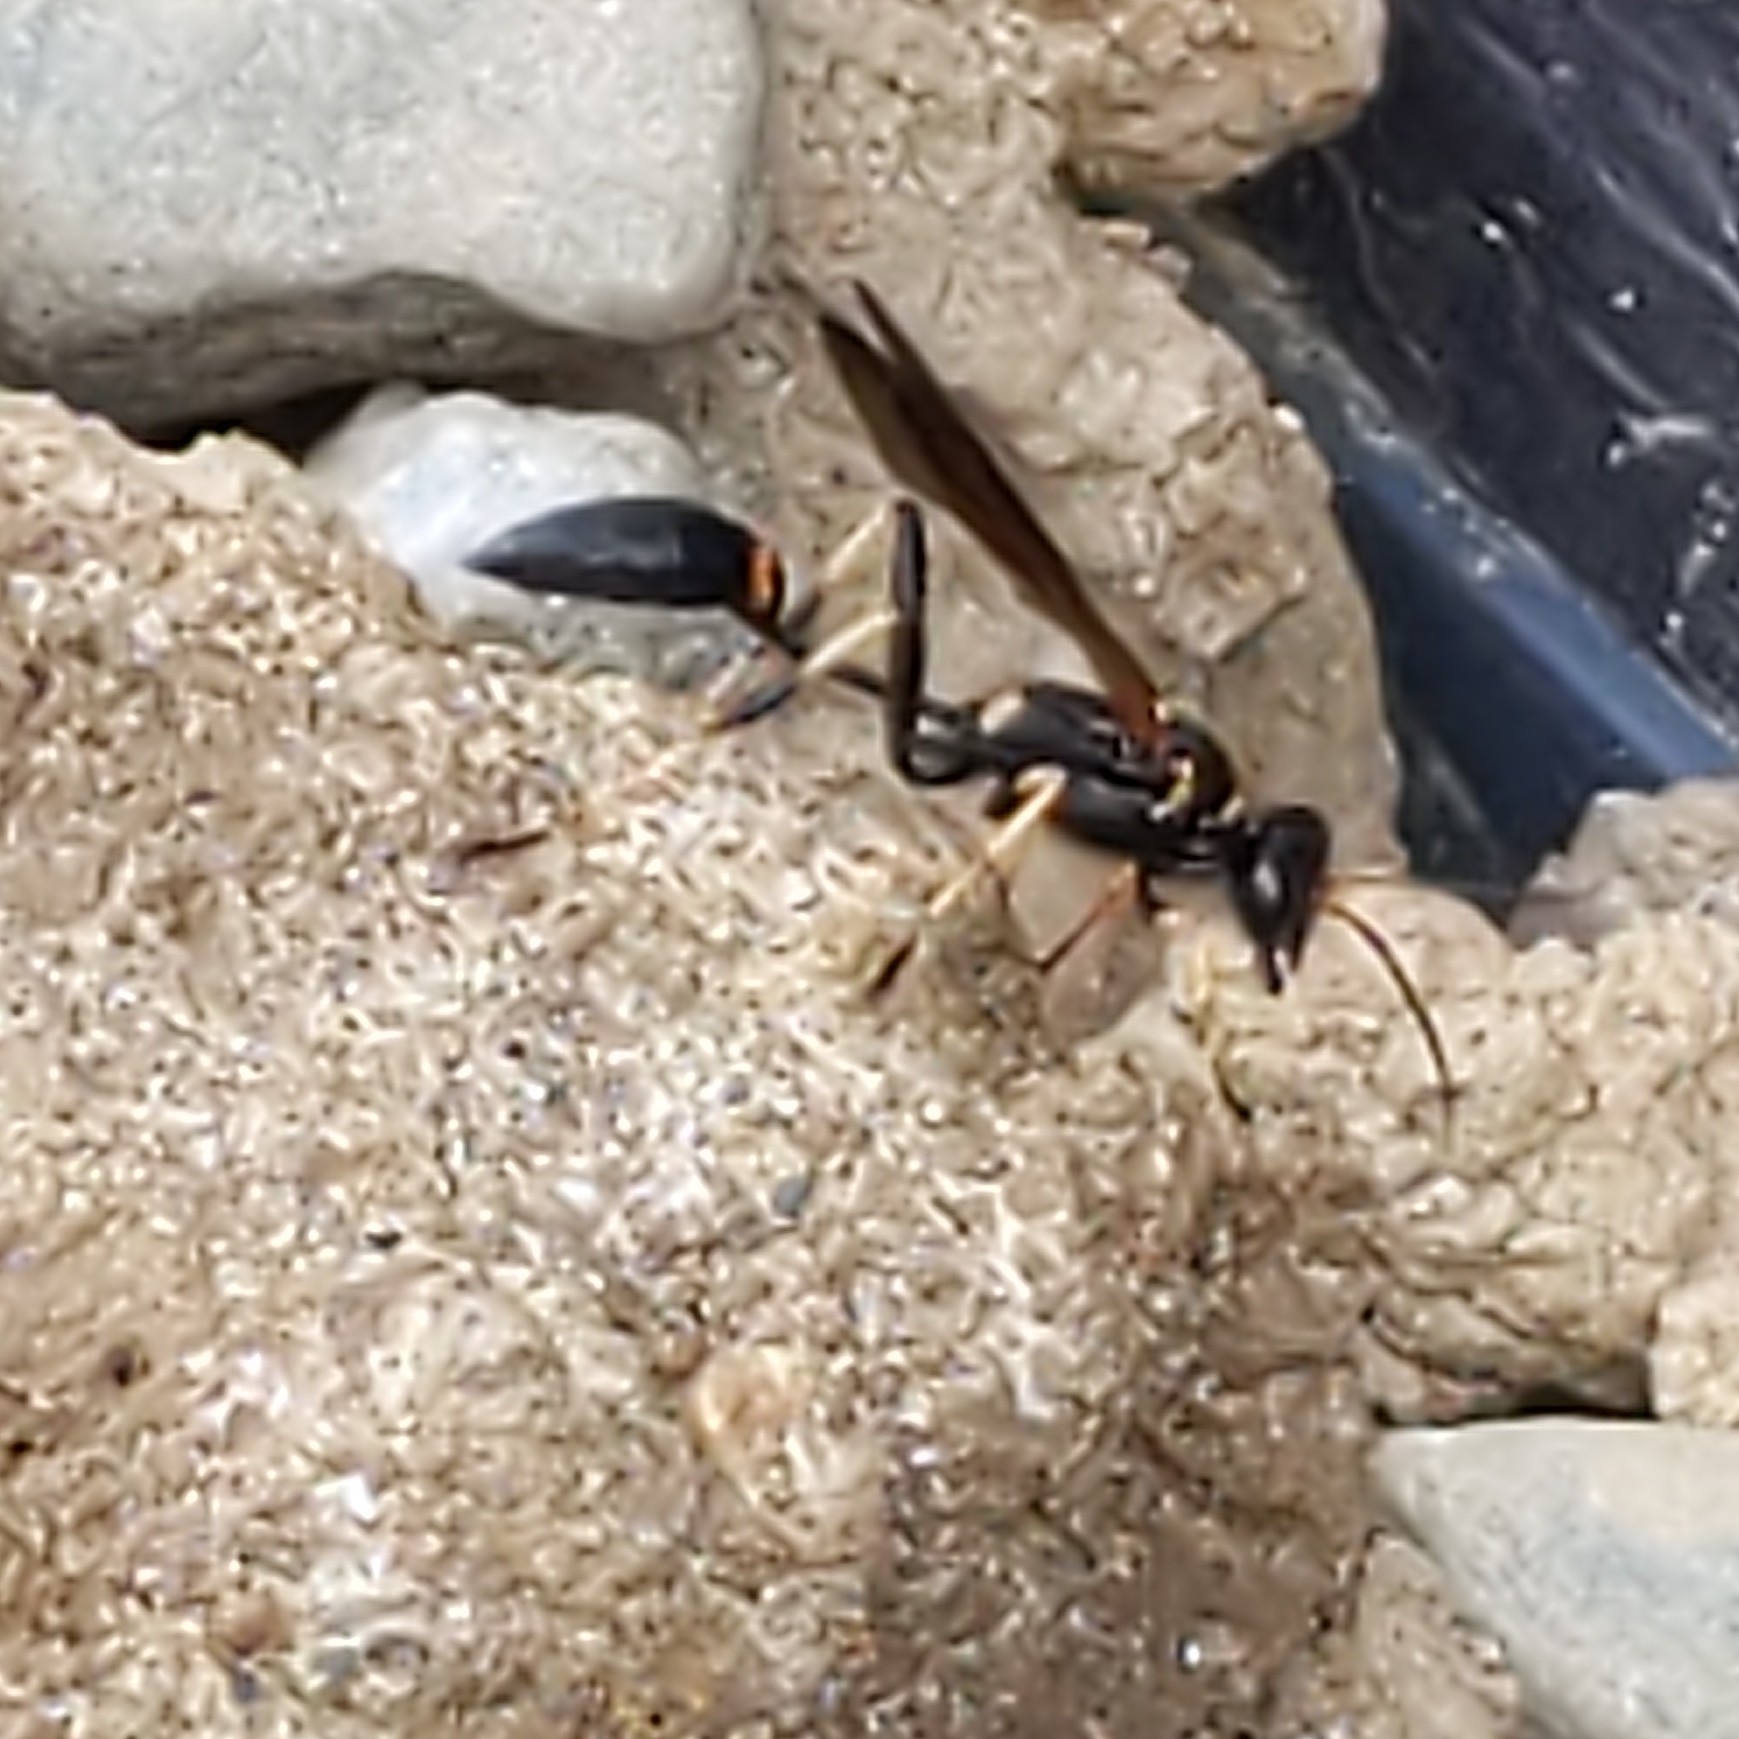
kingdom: Animalia
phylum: Arthropoda
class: Insecta
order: Hymenoptera
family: Sphecidae
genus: Sceliphron
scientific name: Sceliphron caementarium
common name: Mud dauber
